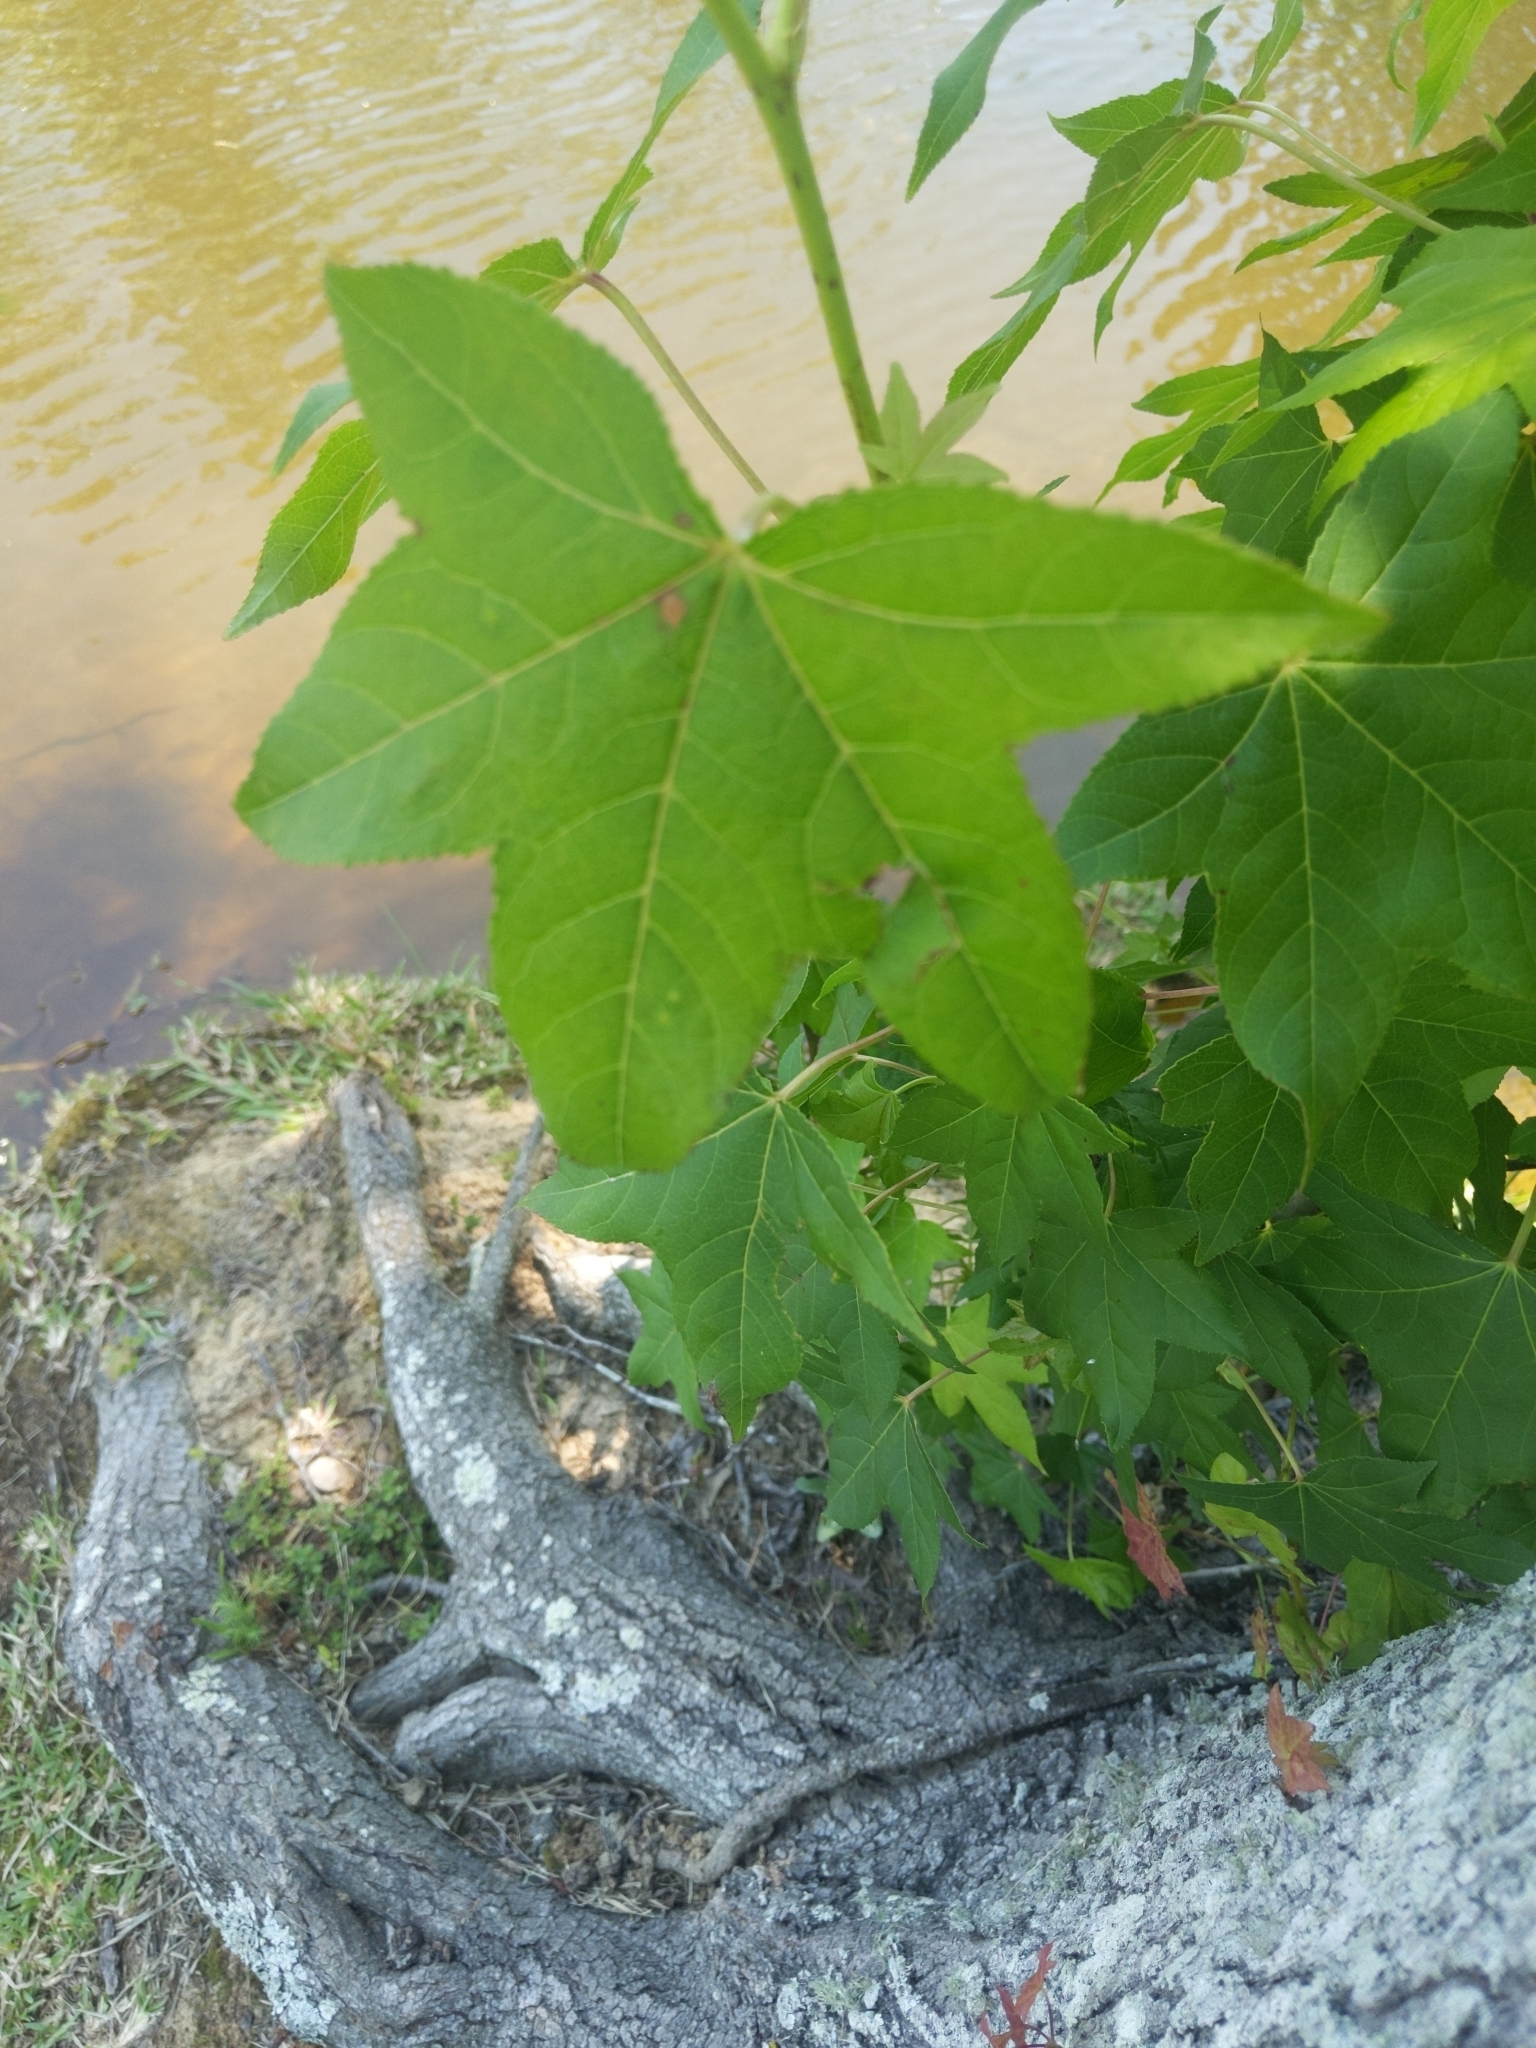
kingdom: Plantae
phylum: Tracheophyta
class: Magnoliopsida
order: Saxifragales
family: Altingiaceae
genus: Liquidambar
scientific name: Liquidambar styraciflua
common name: Sweet gum
